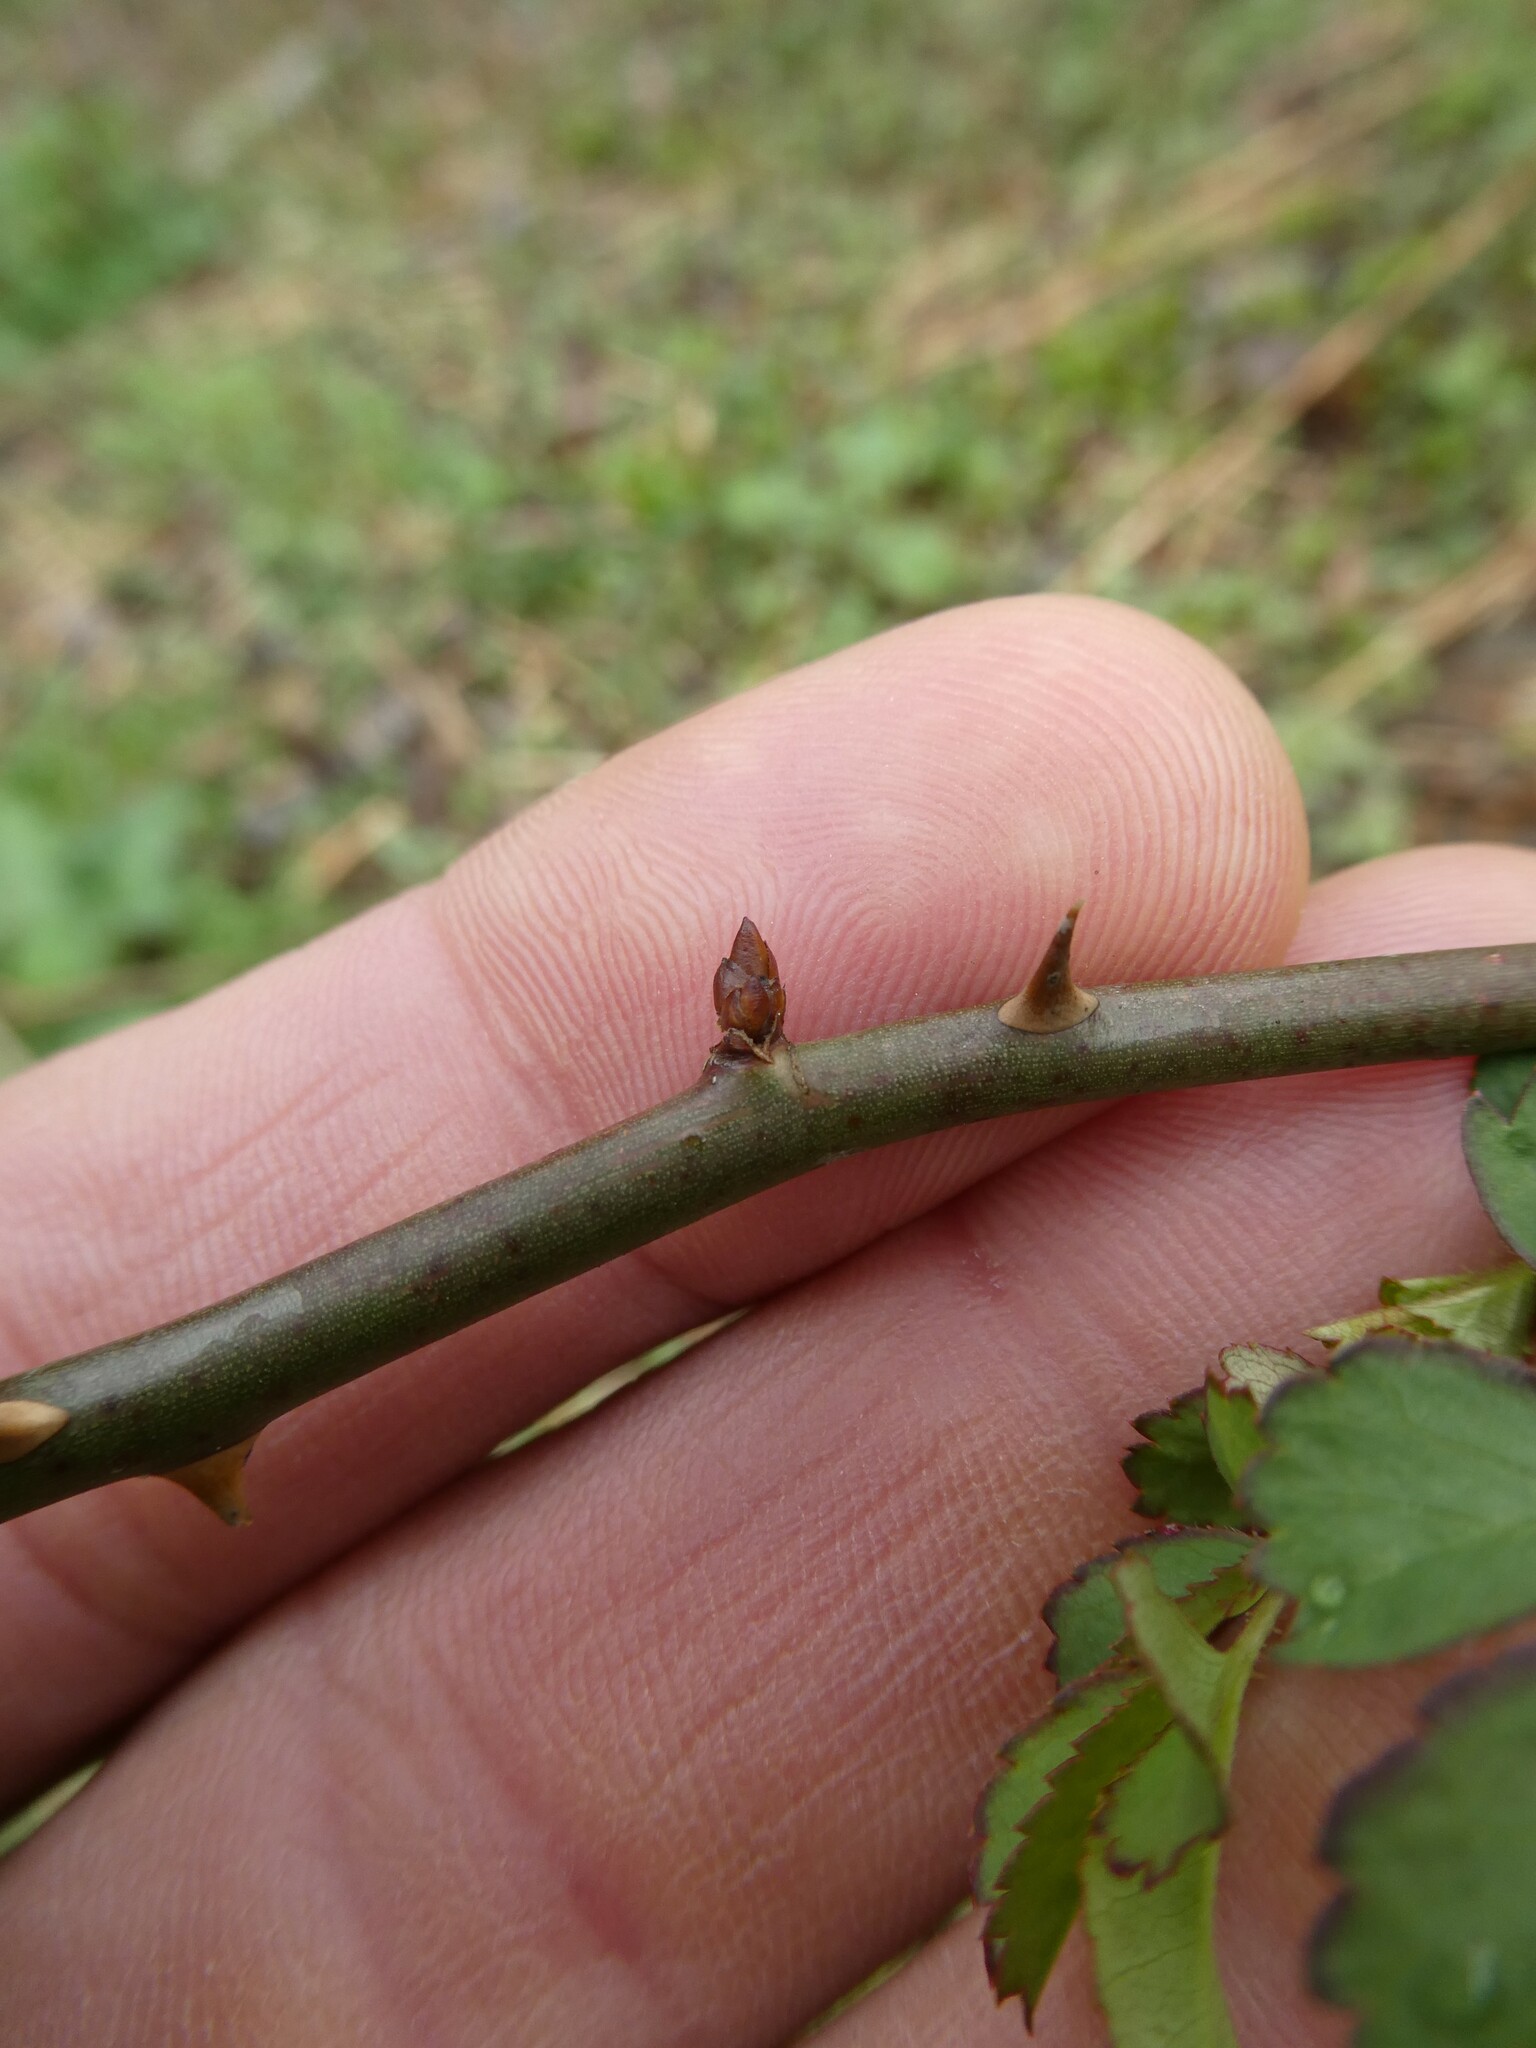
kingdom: Plantae
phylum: Tracheophyta
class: Magnoliopsida
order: Rosales
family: Rosaceae
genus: Rosa
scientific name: Rosa multiflora
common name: Multiflora rose
